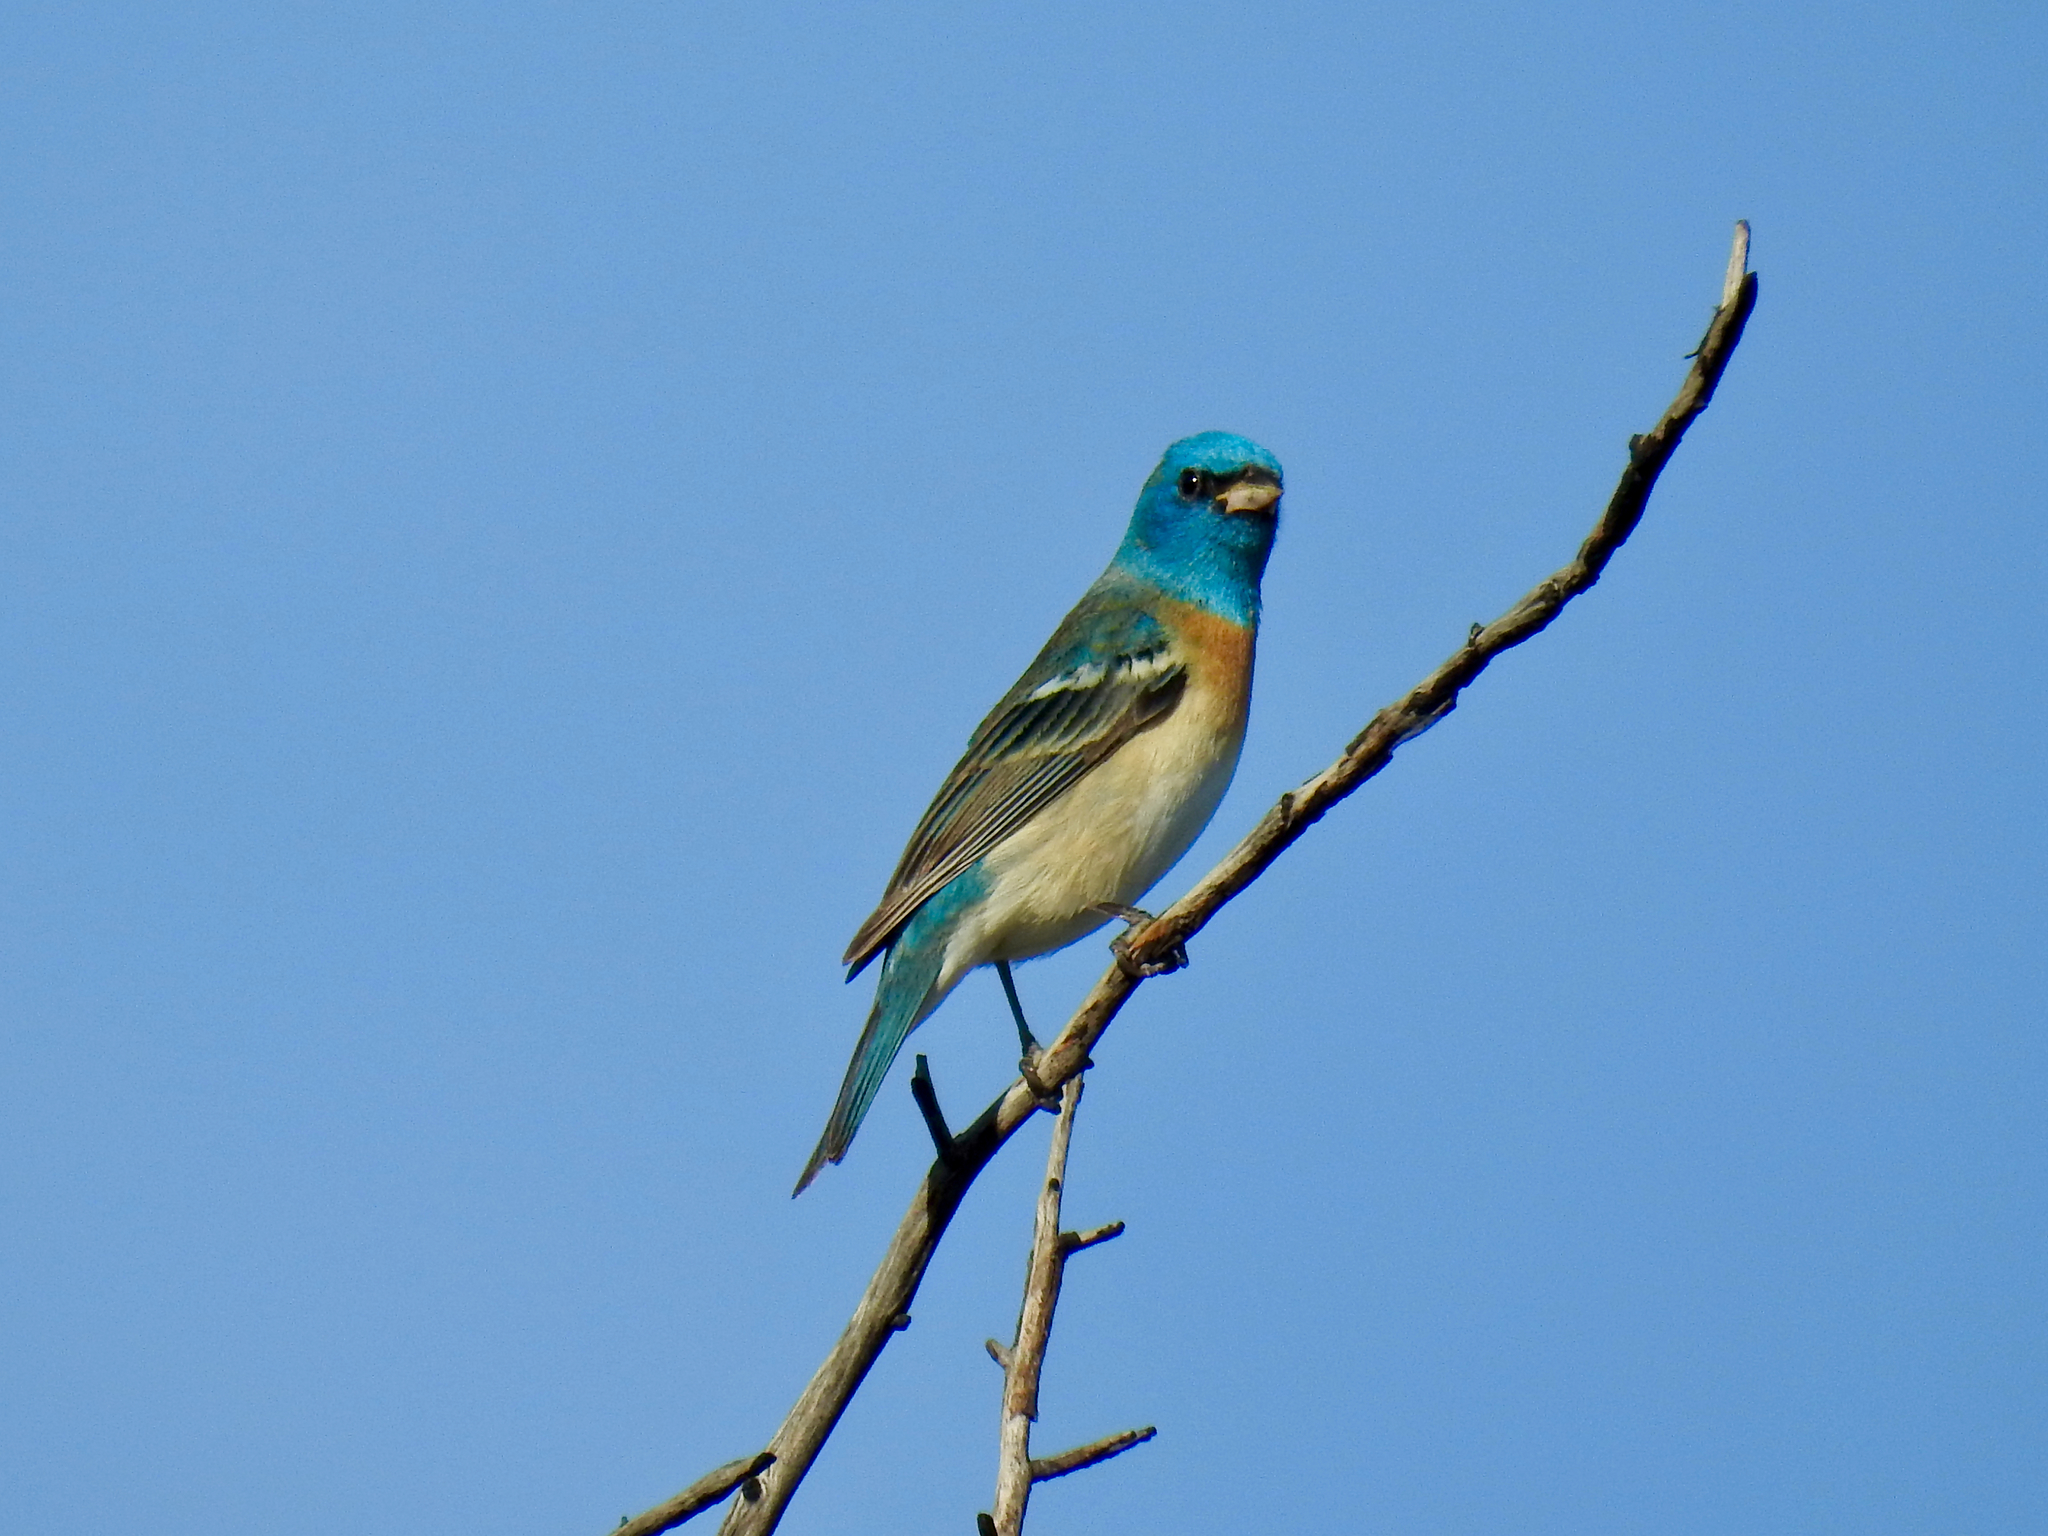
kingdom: Animalia
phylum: Chordata
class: Aves
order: Passeriformes
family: Cardinalidae
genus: Passerina
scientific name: Passerina amoena
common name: Lazuli bunting
